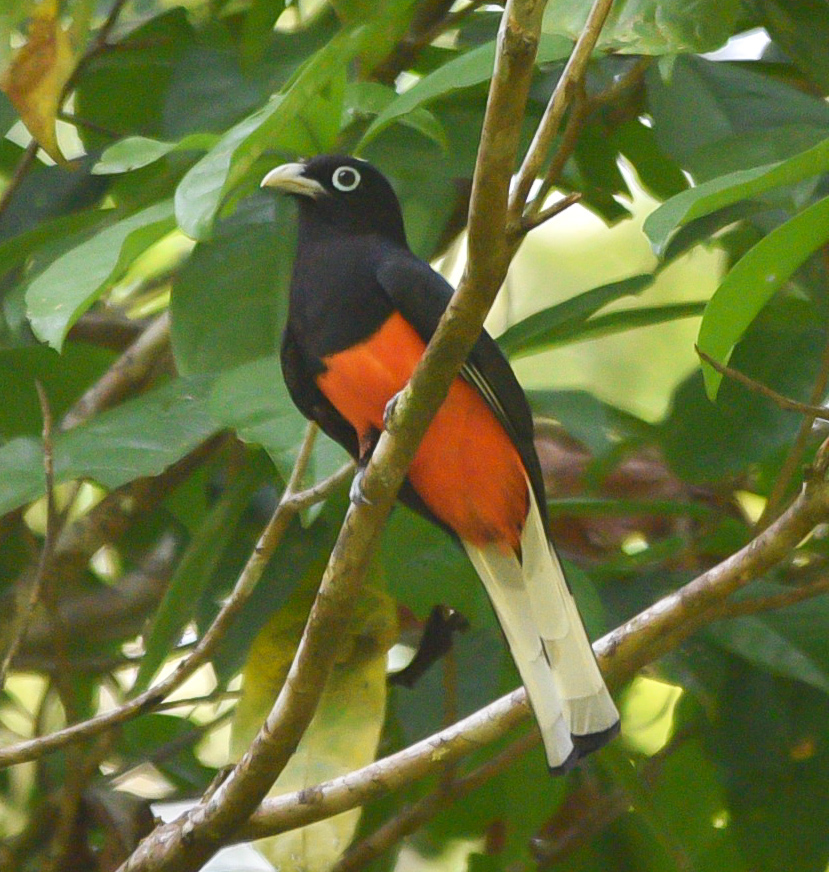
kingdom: Animalia
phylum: Chordata
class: Aves
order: Trogoniformes
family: Trogonidae
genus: Trogon
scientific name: Trogon bairdii
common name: Baird's trogon
